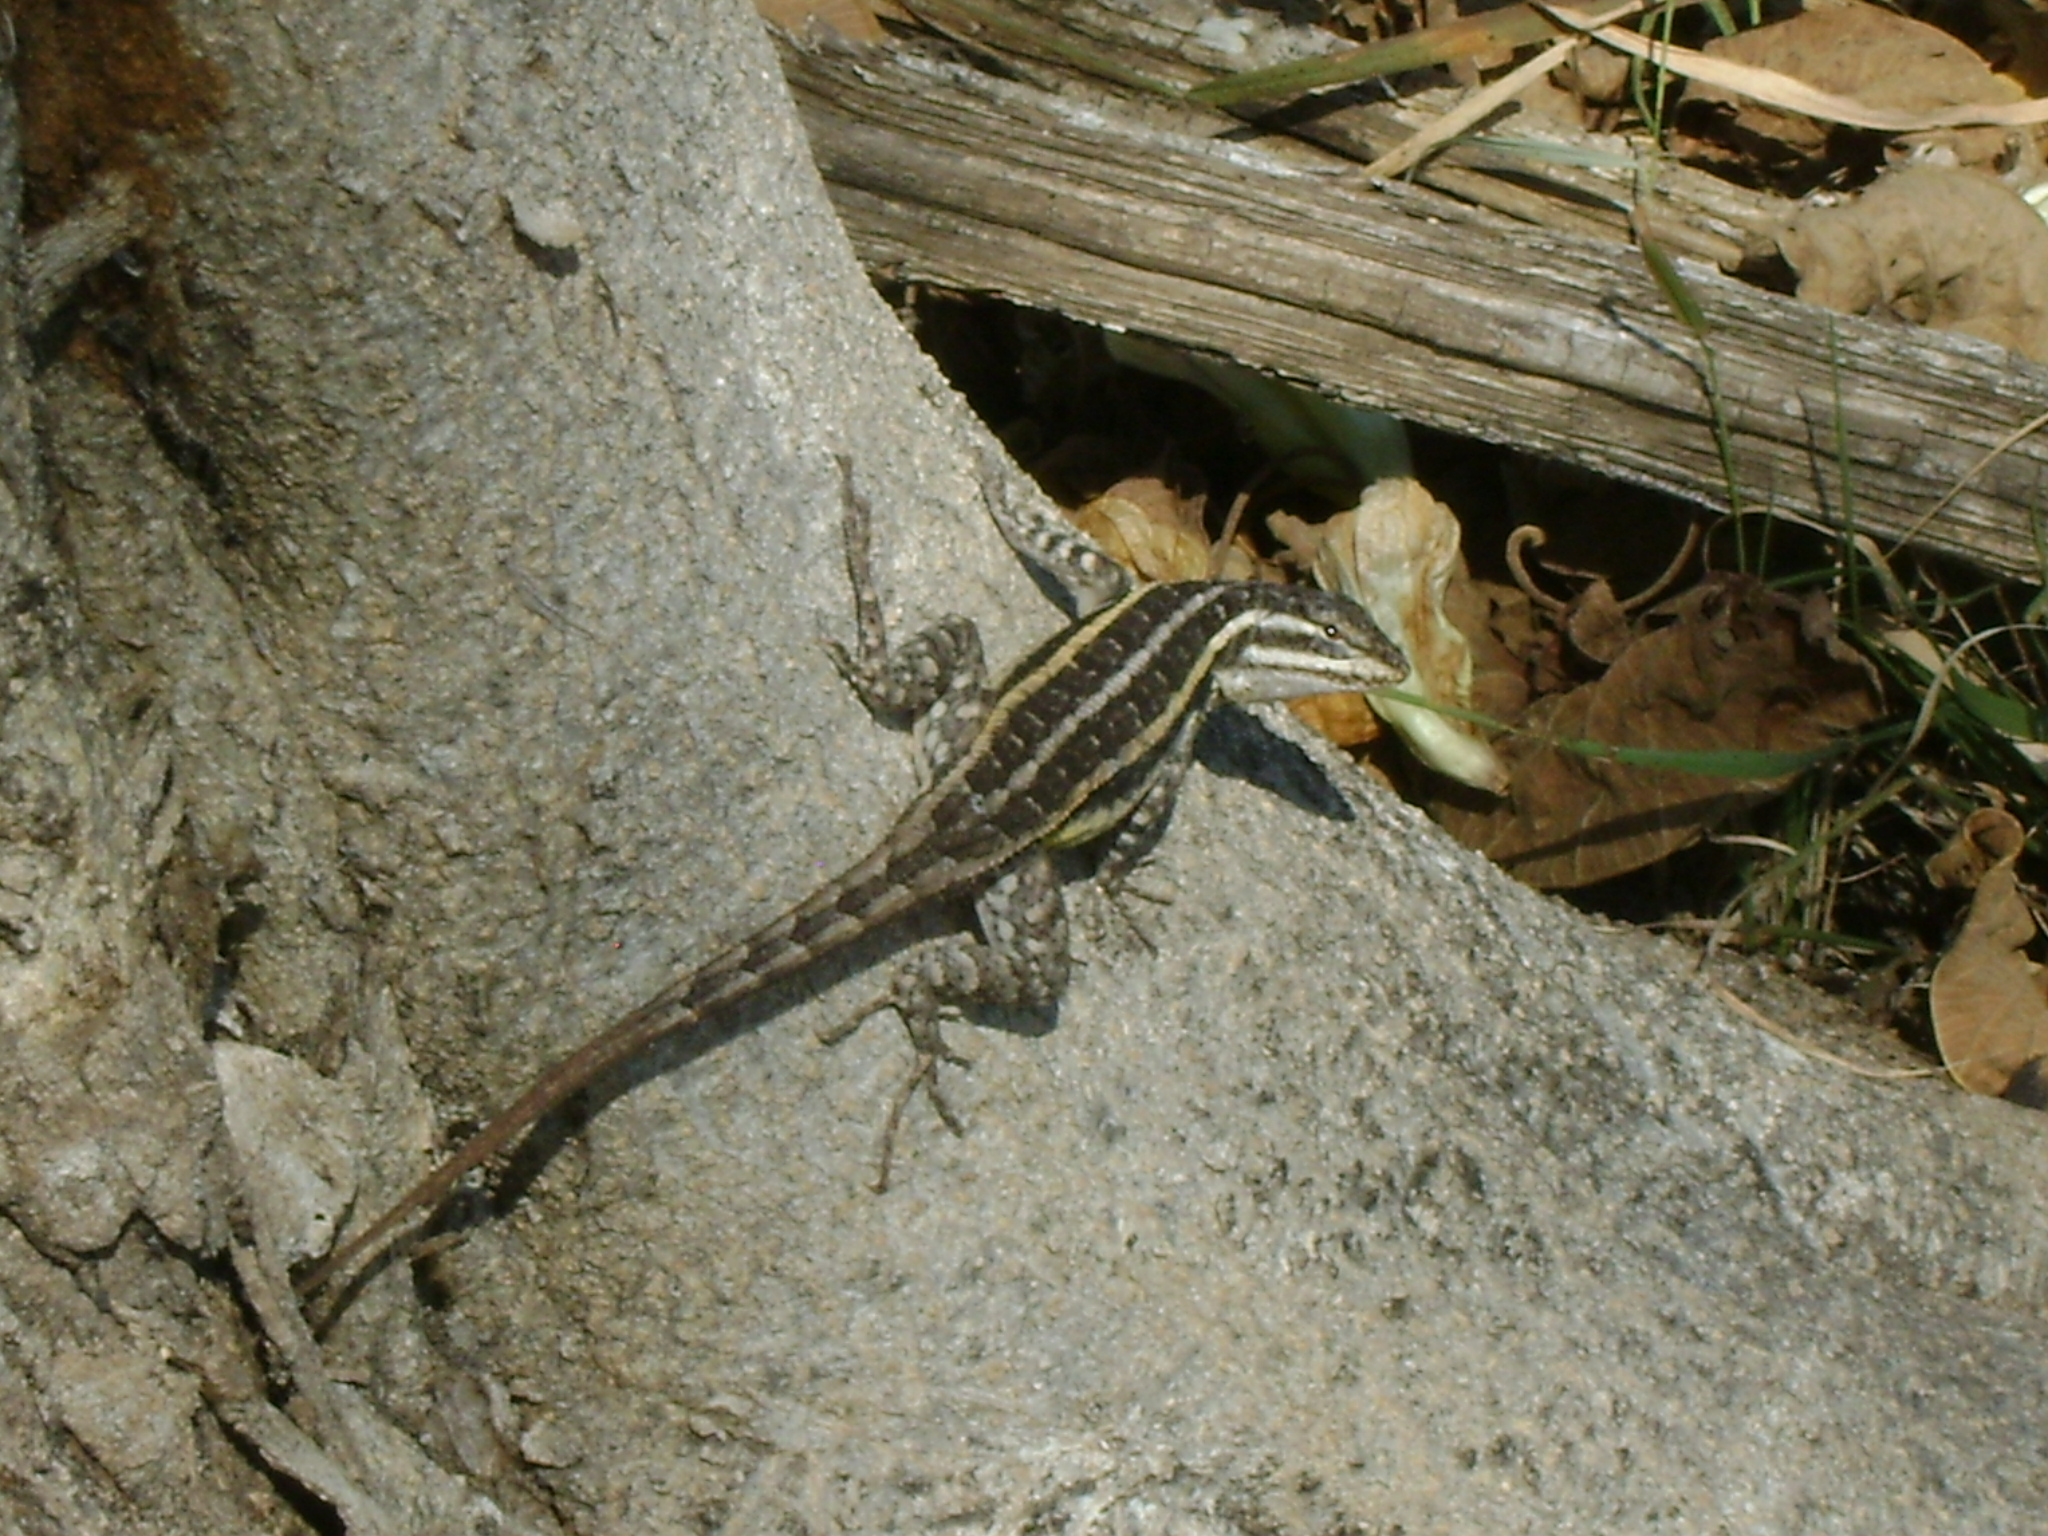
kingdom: Animalia
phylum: Chordata
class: Squamata
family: Phrynosomatidae
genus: Sceloporus
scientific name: Sceloporus variabilis
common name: Rosebelly lizard
